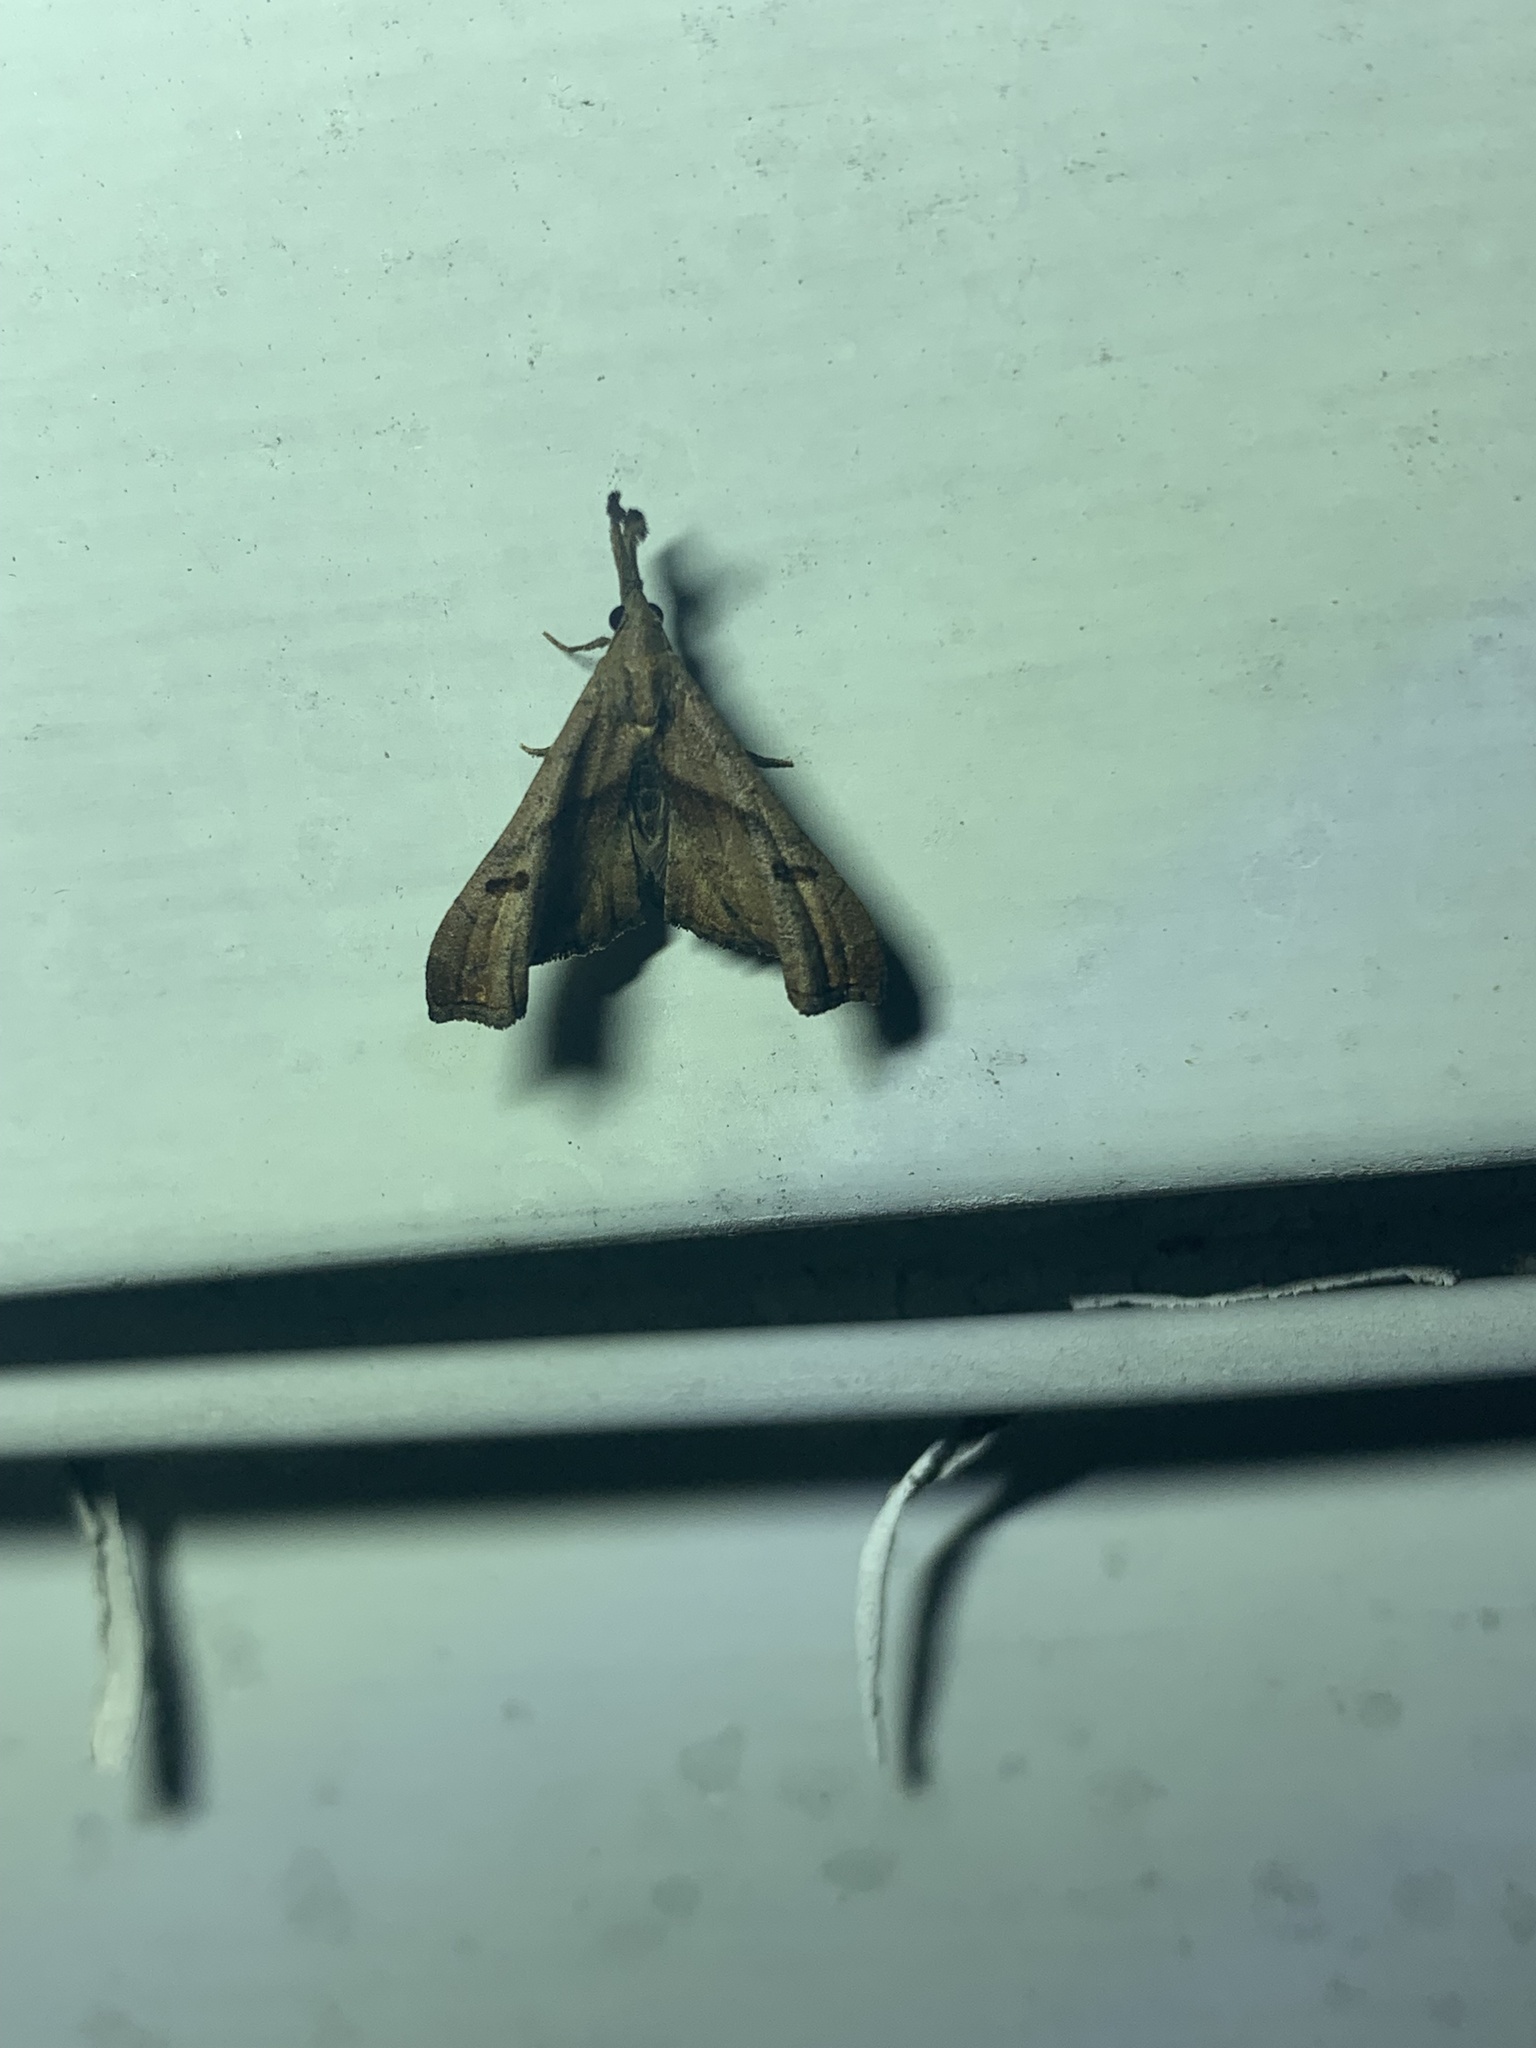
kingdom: Animalia
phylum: Arthropoda
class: Insecta
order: Lepidoptera
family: Erebidae
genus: Palthis
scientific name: Palthis angulalis
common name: Dark-spotted palthis moth
